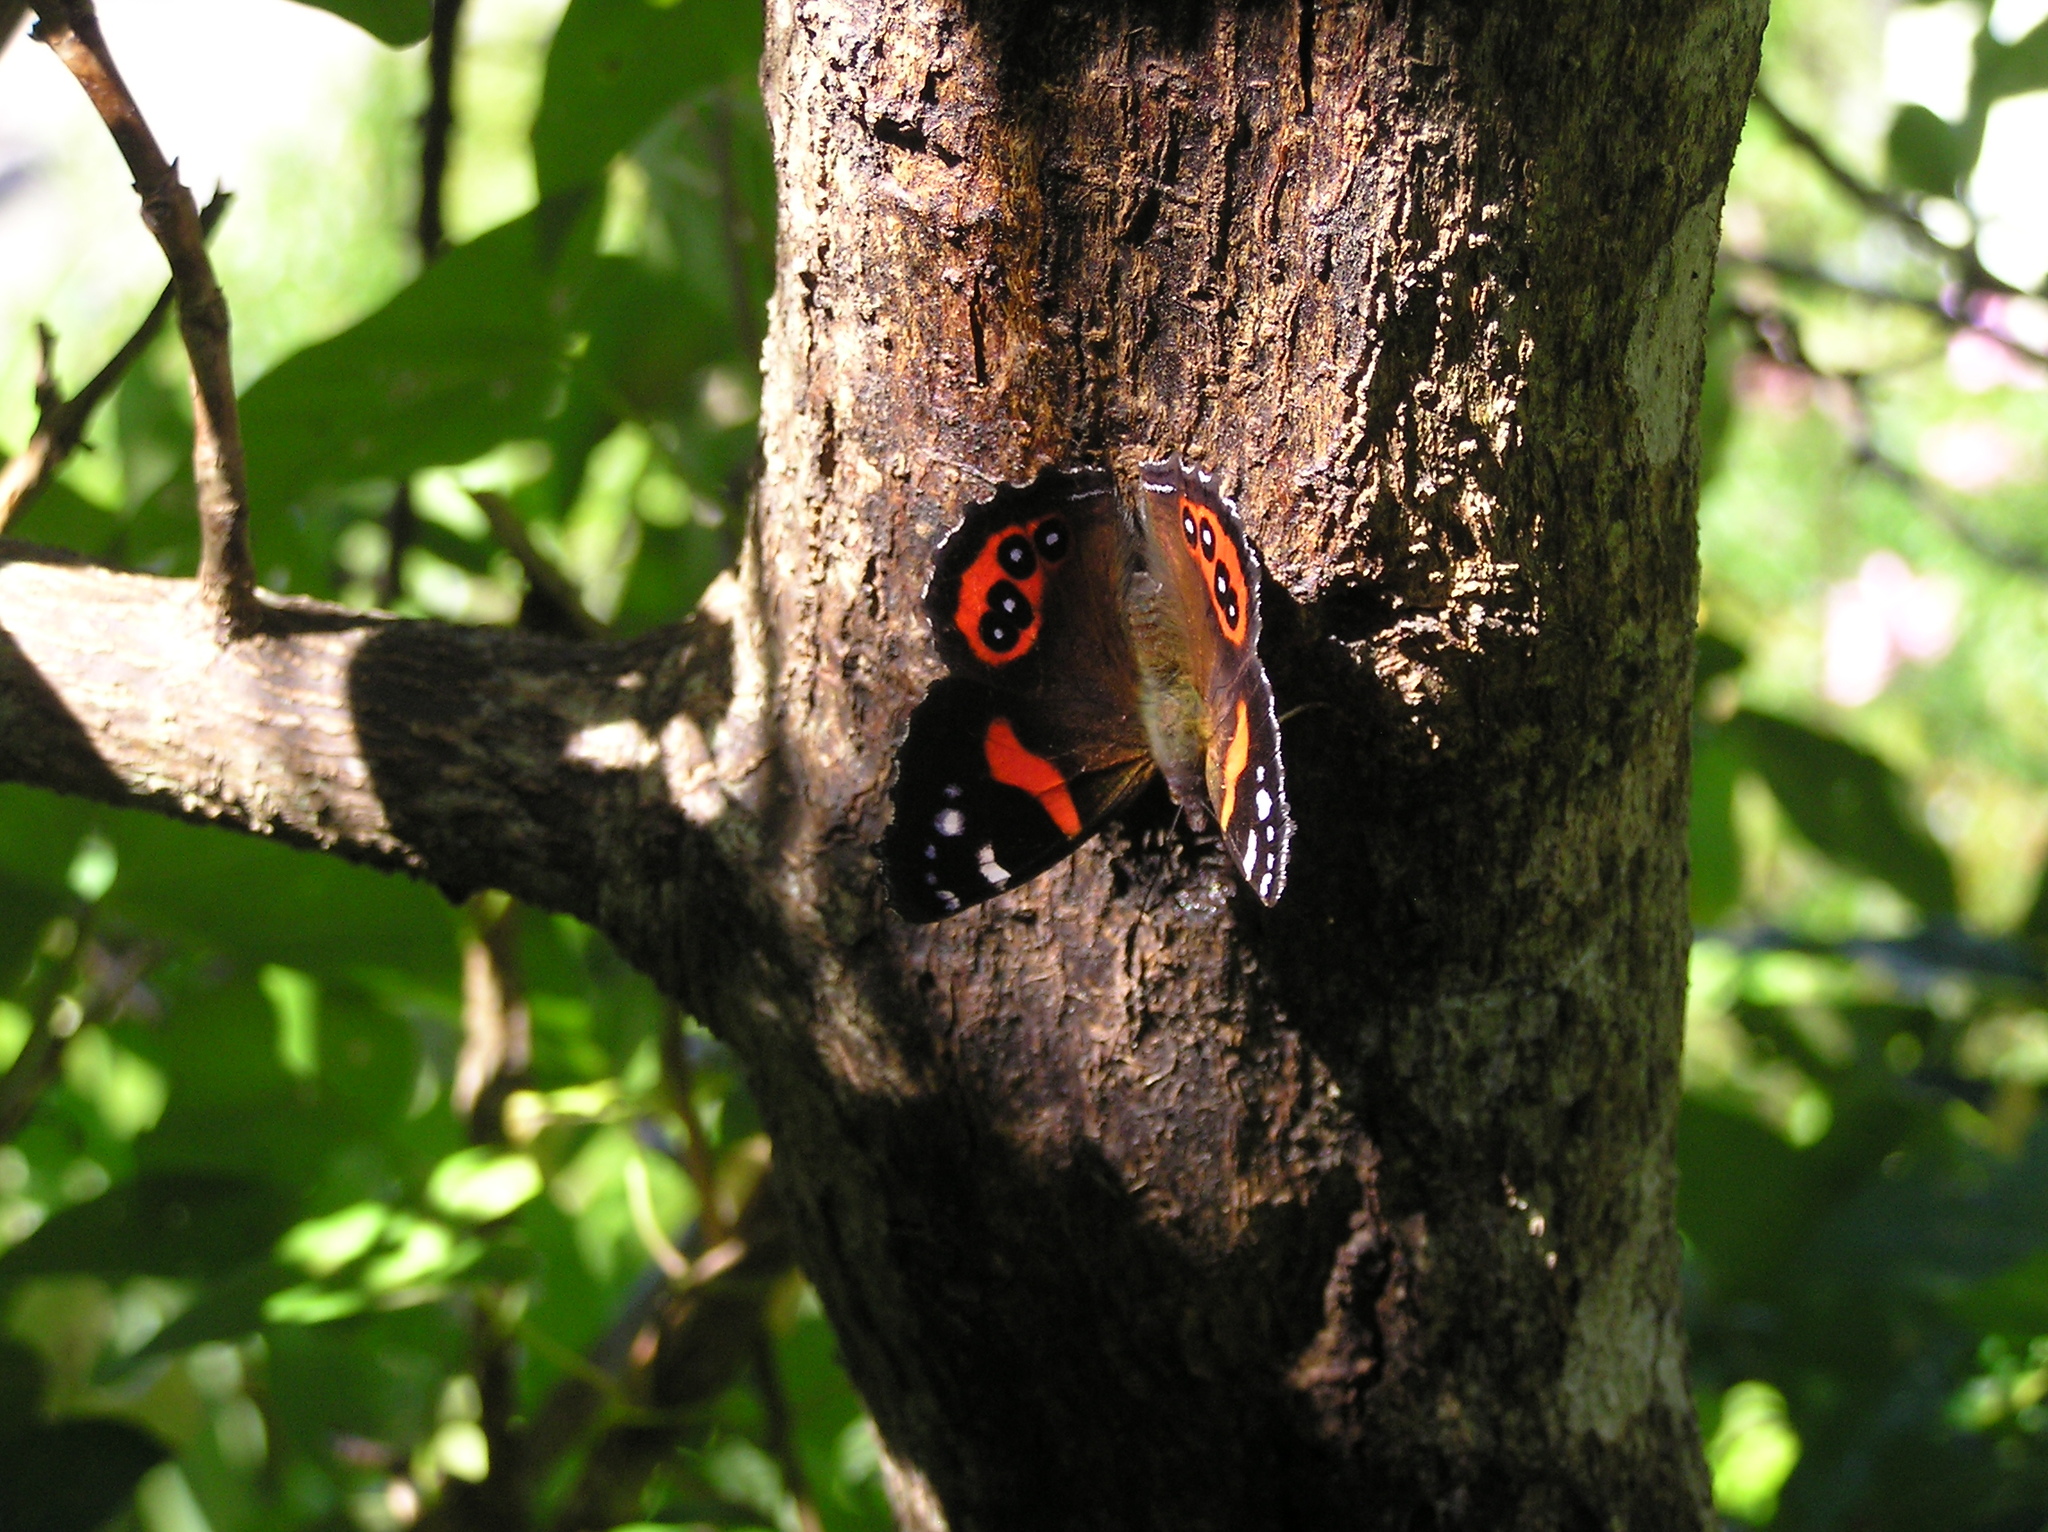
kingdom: Animalia
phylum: Arthropoda
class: Insecta
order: Lepidoptera
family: Nymphalidae
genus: Vanessa
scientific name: Vanessa gonerilla
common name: New zealand red admiral
